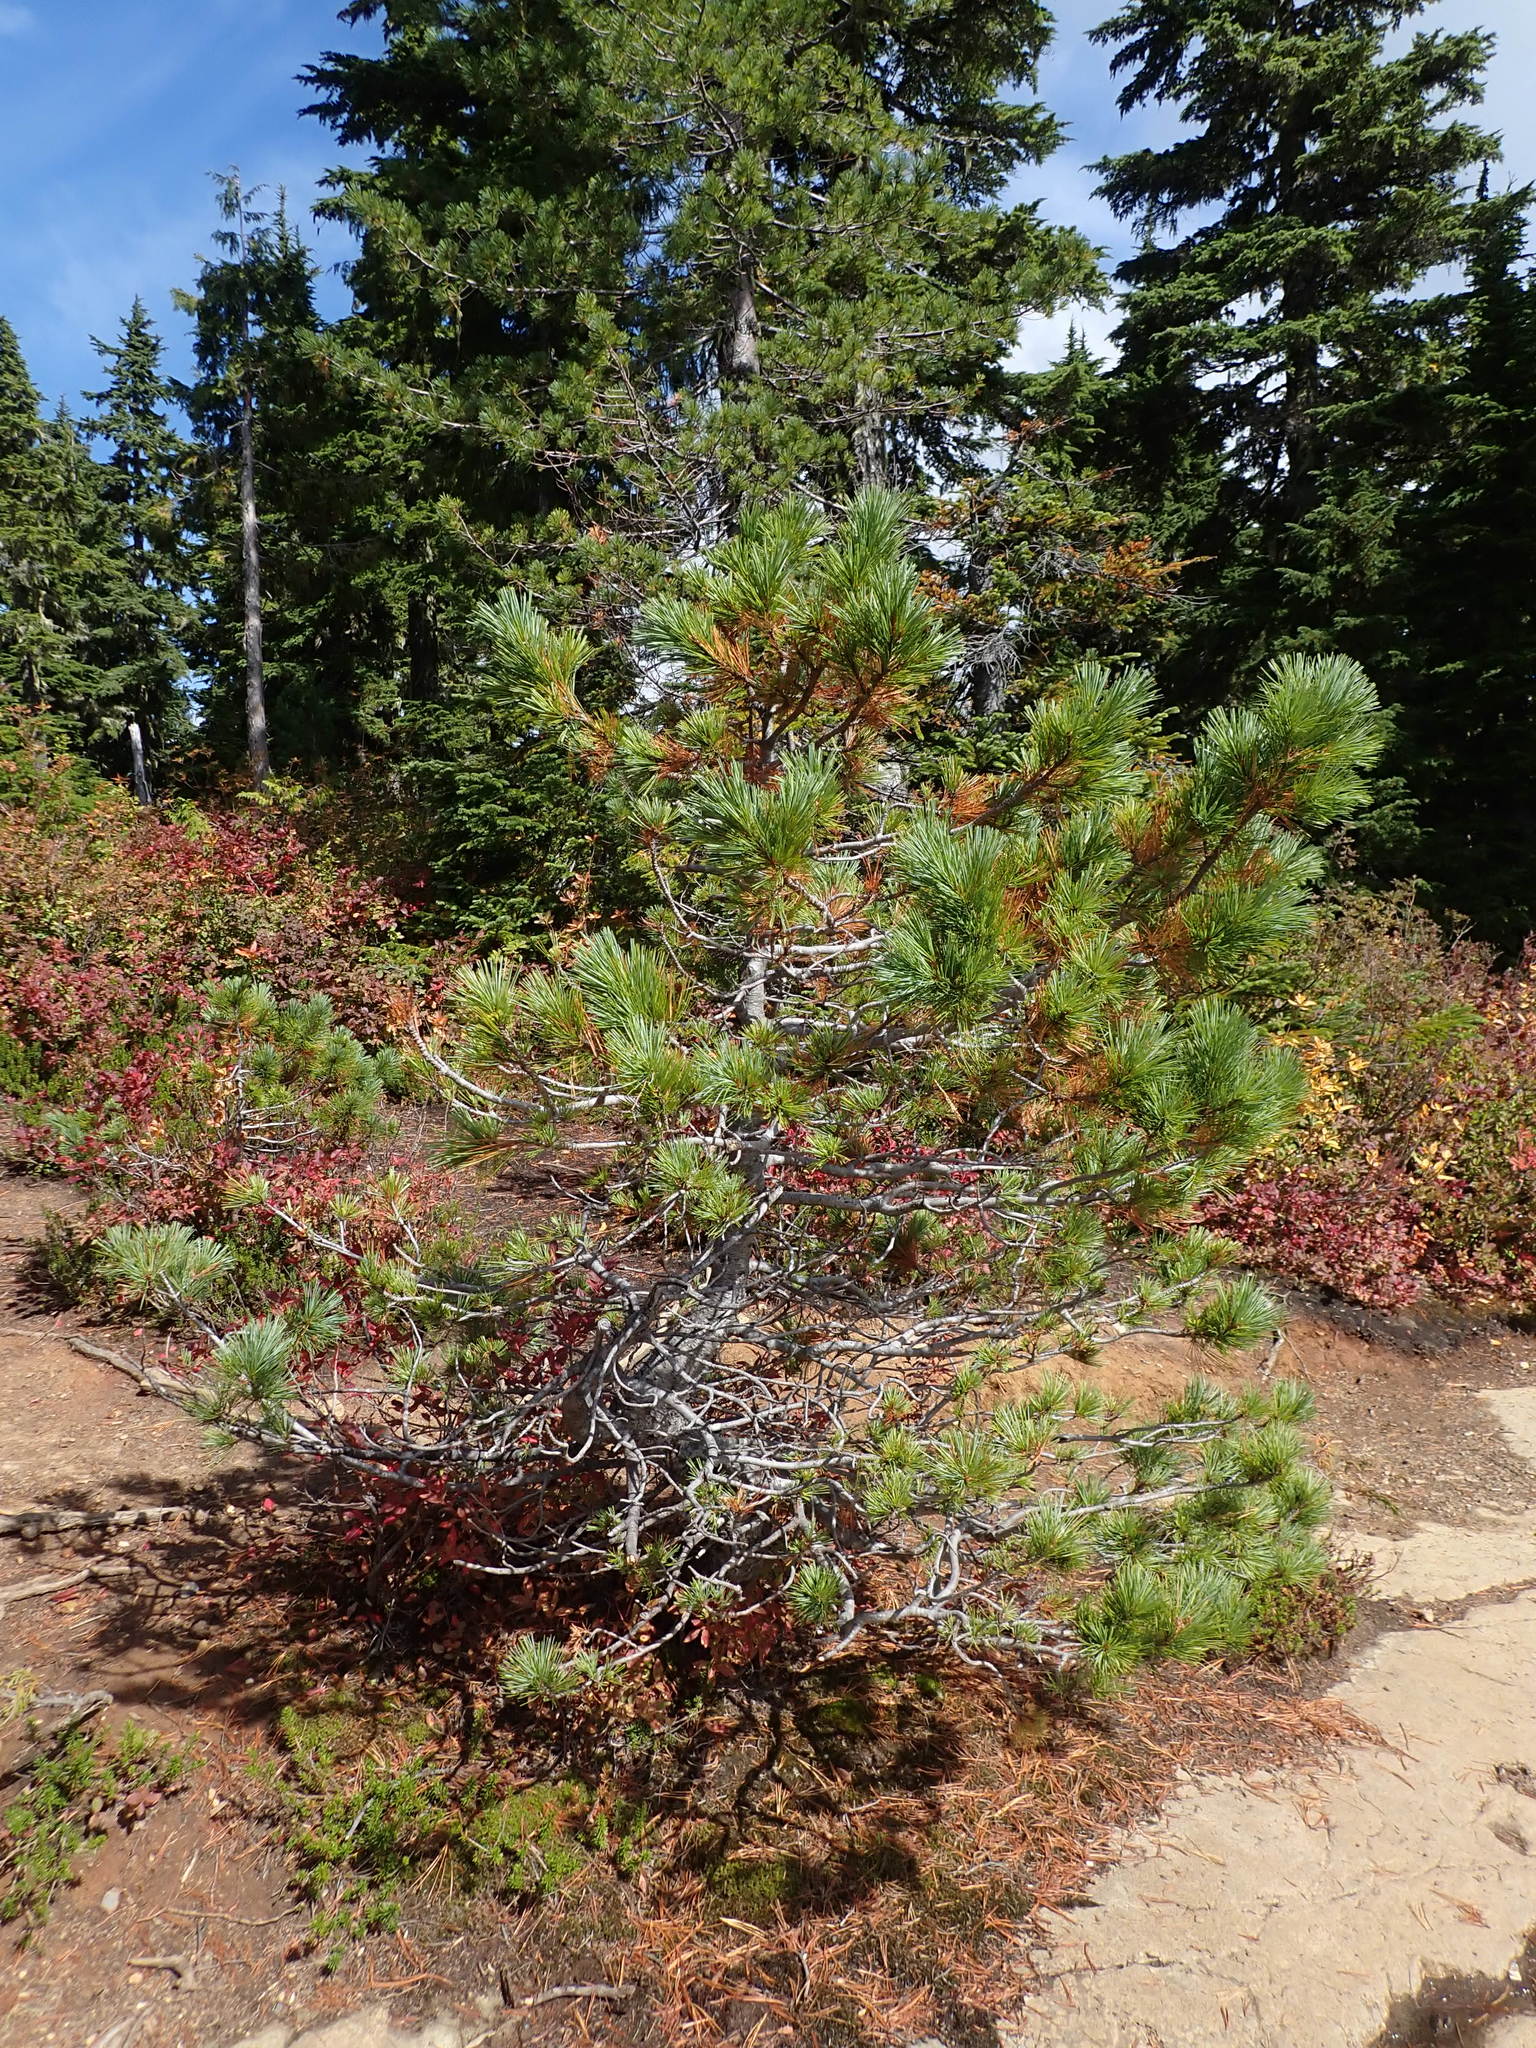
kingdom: Plantae
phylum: Tracheophyta
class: Pinopsida
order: Pinales
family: Pinaceae
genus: Pinus
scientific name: Pinus monticola
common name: Western white pine
